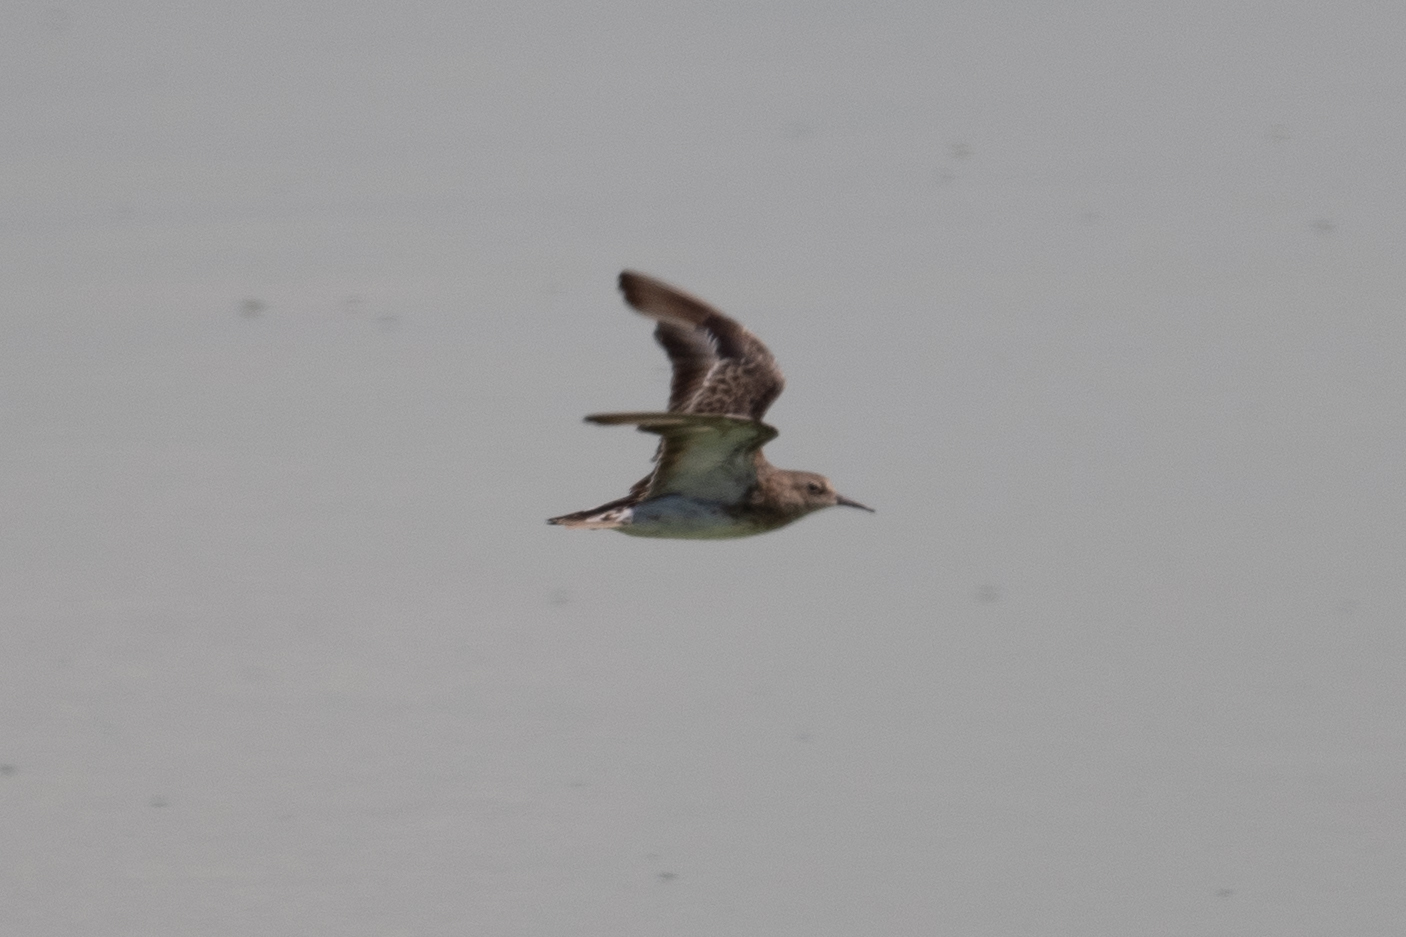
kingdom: Animalia
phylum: Chordata
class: Aves
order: Charadriiformes
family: Scolopacidae
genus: Calidris
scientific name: Calidris minutilla
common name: Least sandpiper
